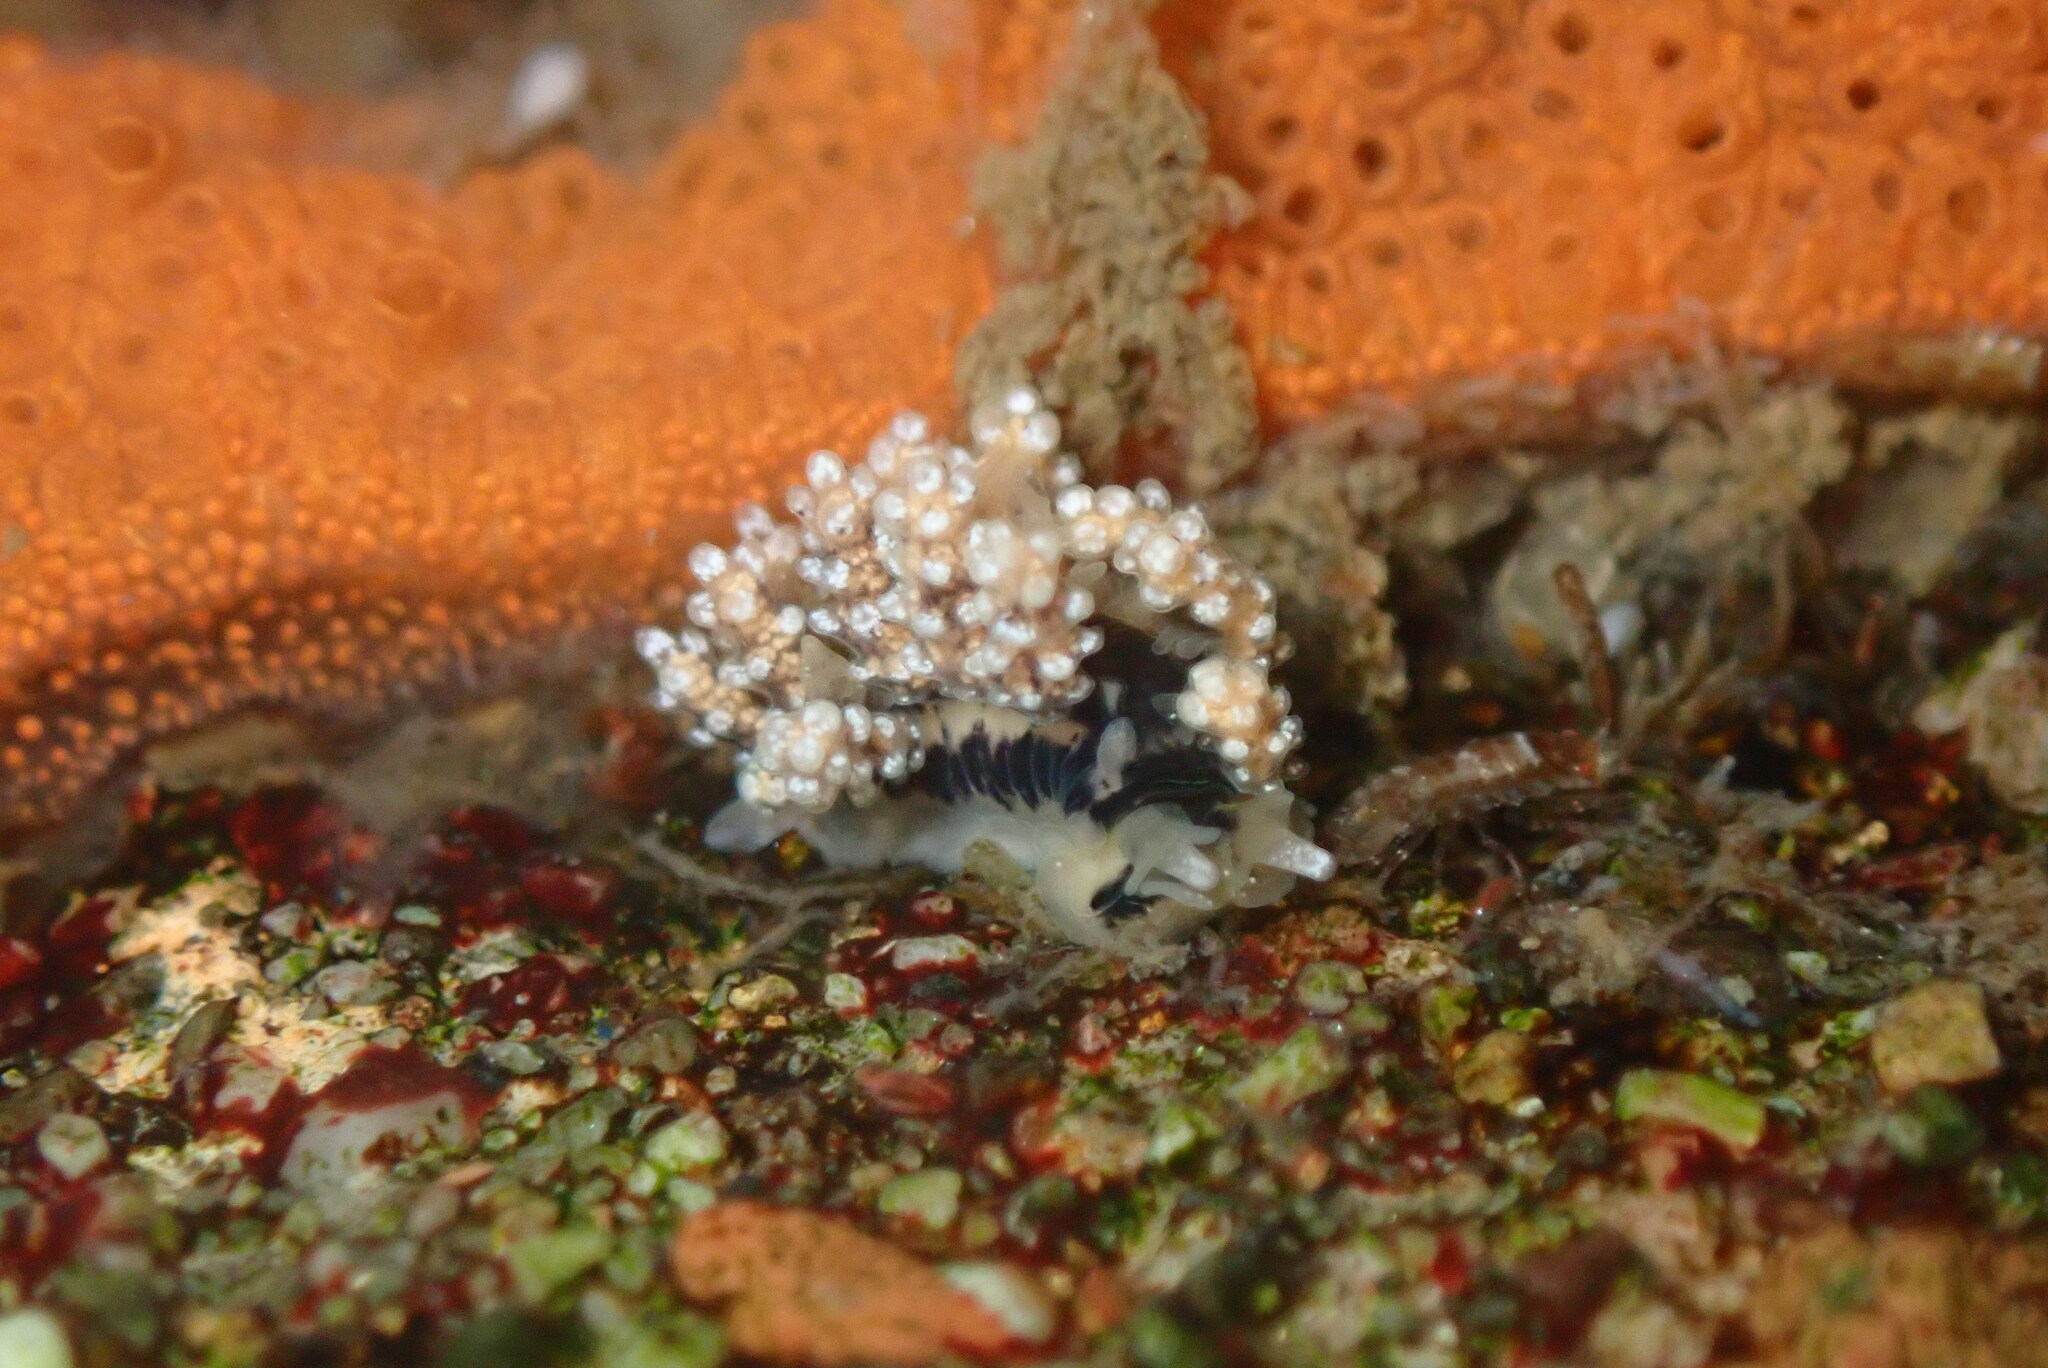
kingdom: Animalia
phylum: Mollusca
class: Gastropoda
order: Nudibranchia
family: Dotidae
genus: Doto
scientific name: Doto kya
